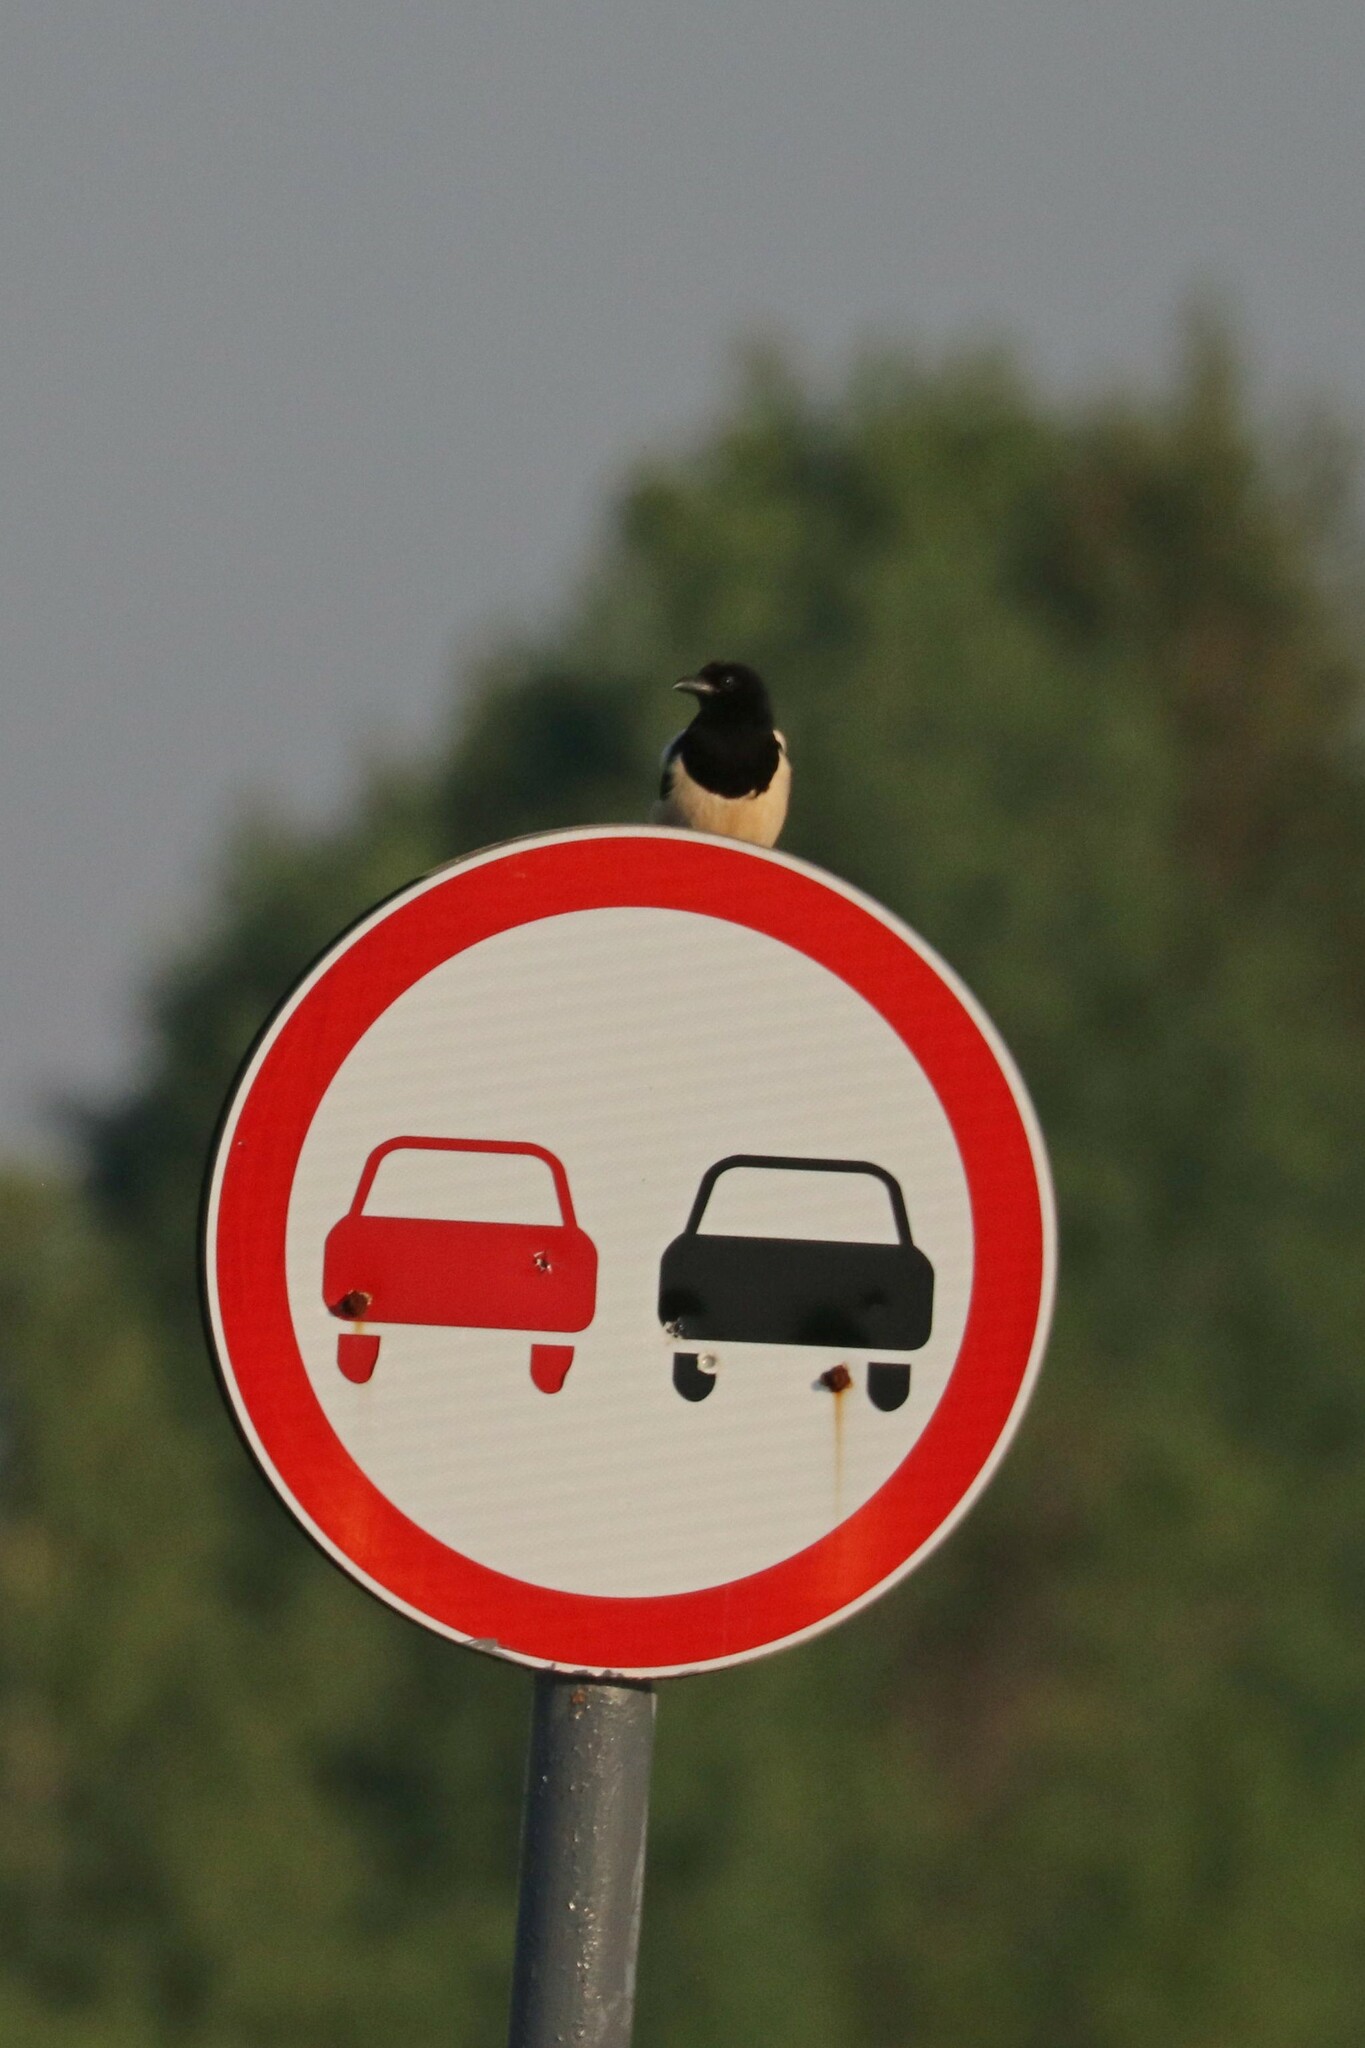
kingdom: Animalia
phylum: Chordata
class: Aves
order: Passeriformes
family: Corvidae
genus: Pica
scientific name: Pica pica
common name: Eurasian magpie
